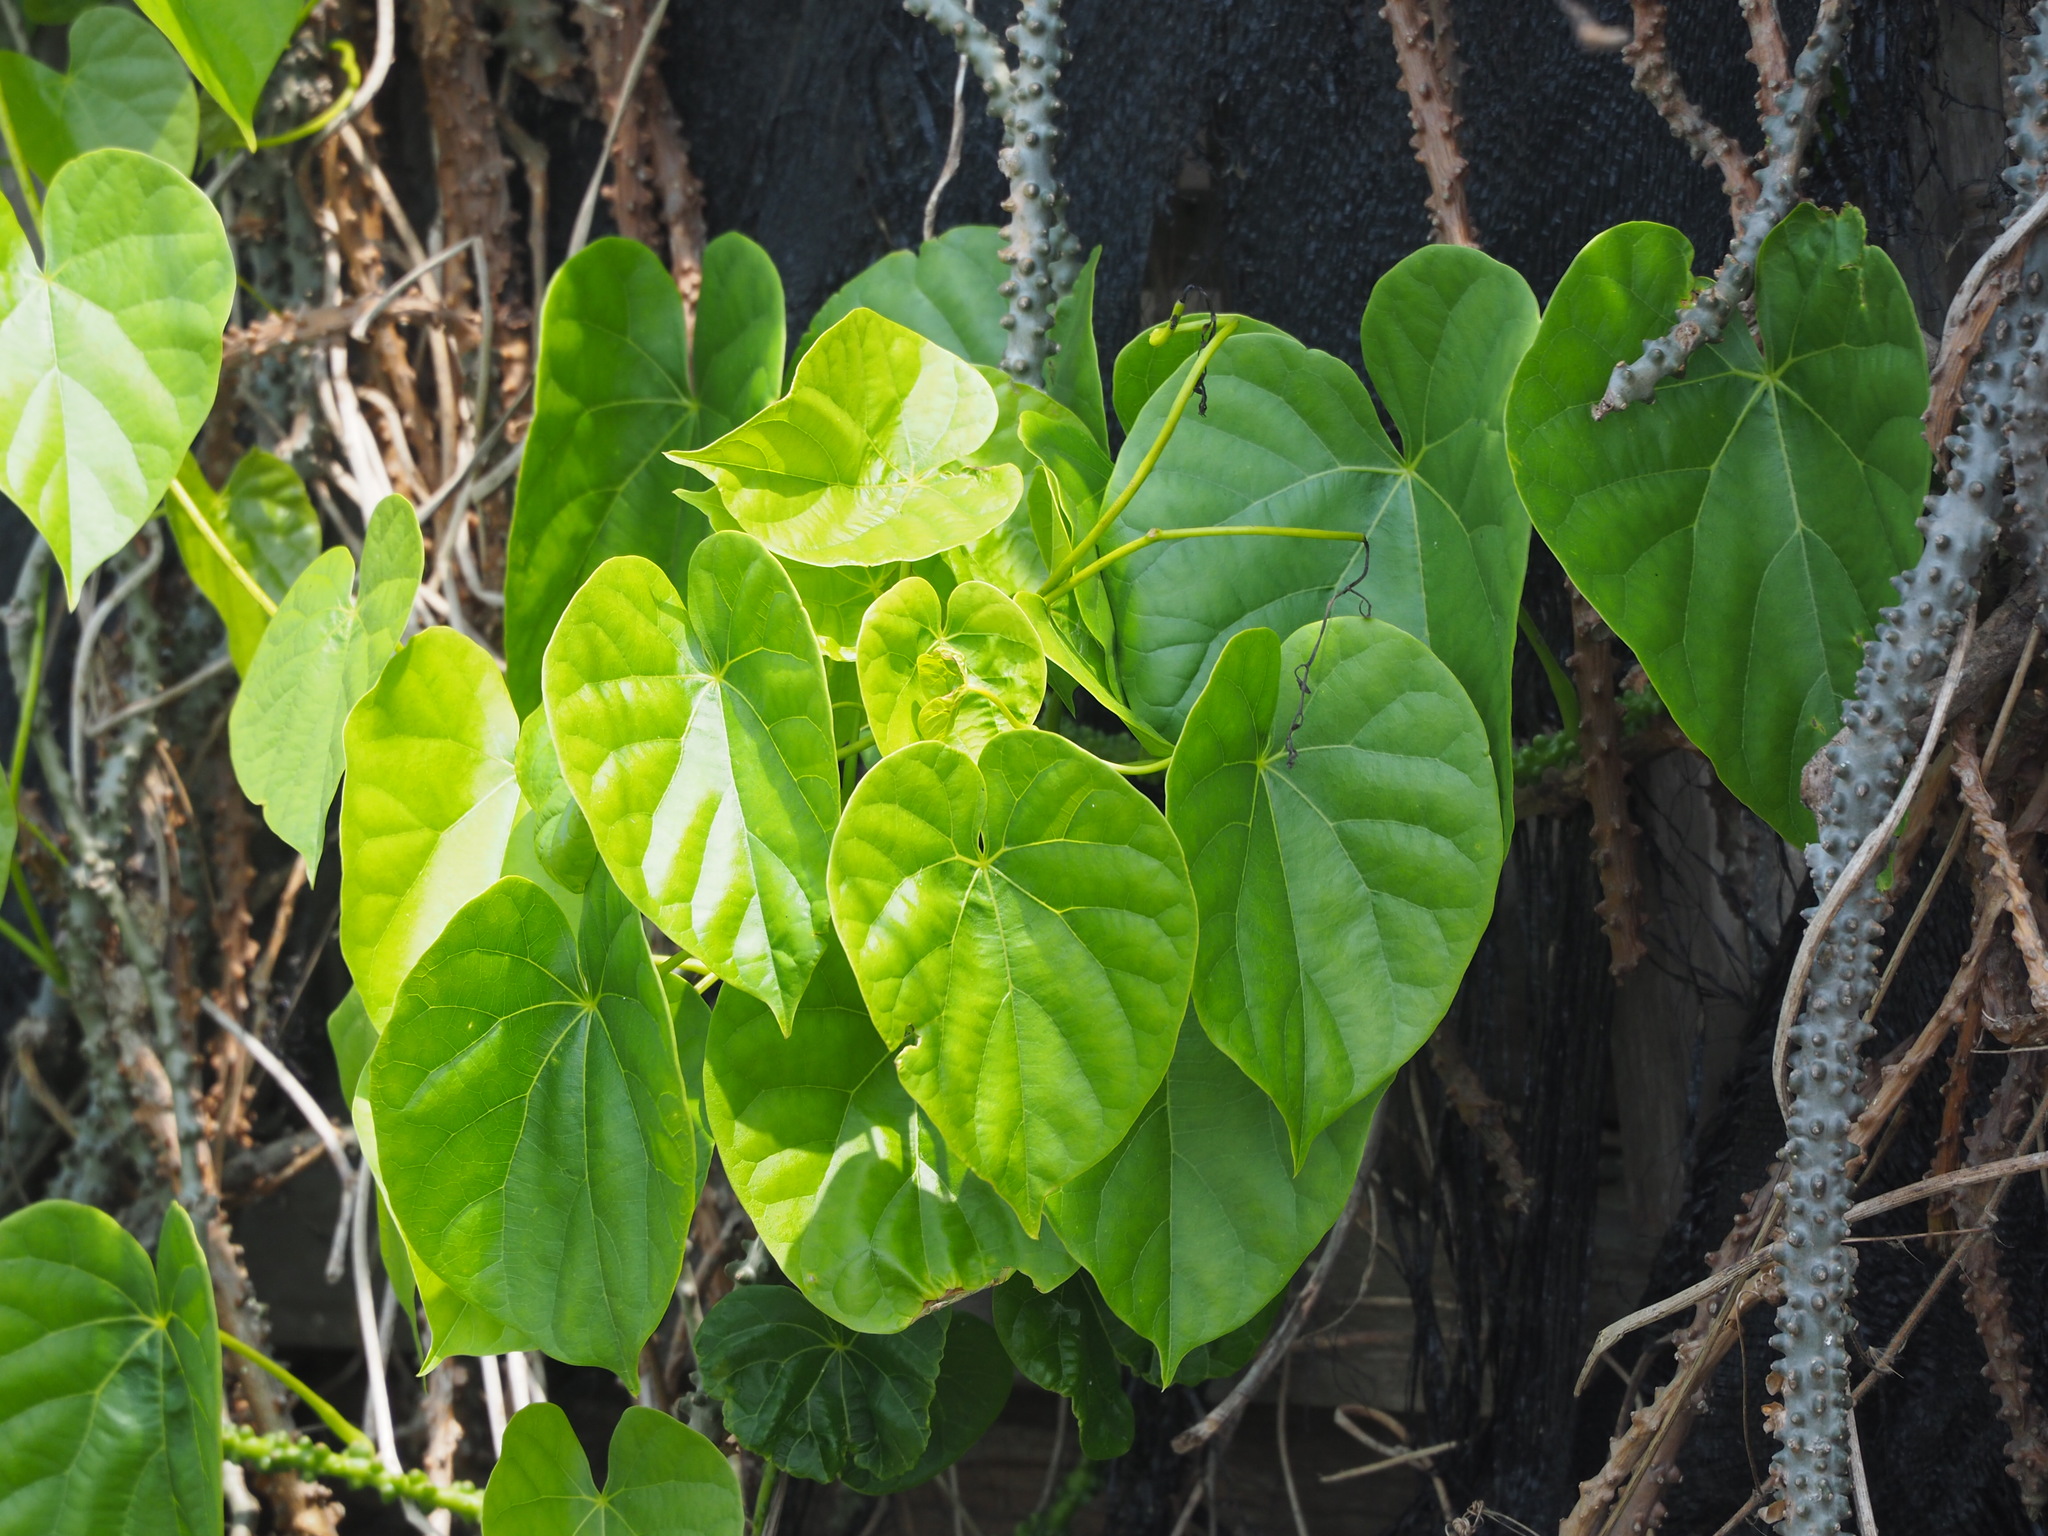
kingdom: Plantae
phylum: Tracheophyta
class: Magnoliopsida
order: Ranunculales
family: Menispermaceae
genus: Tinospora
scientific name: Tinospora crispa
